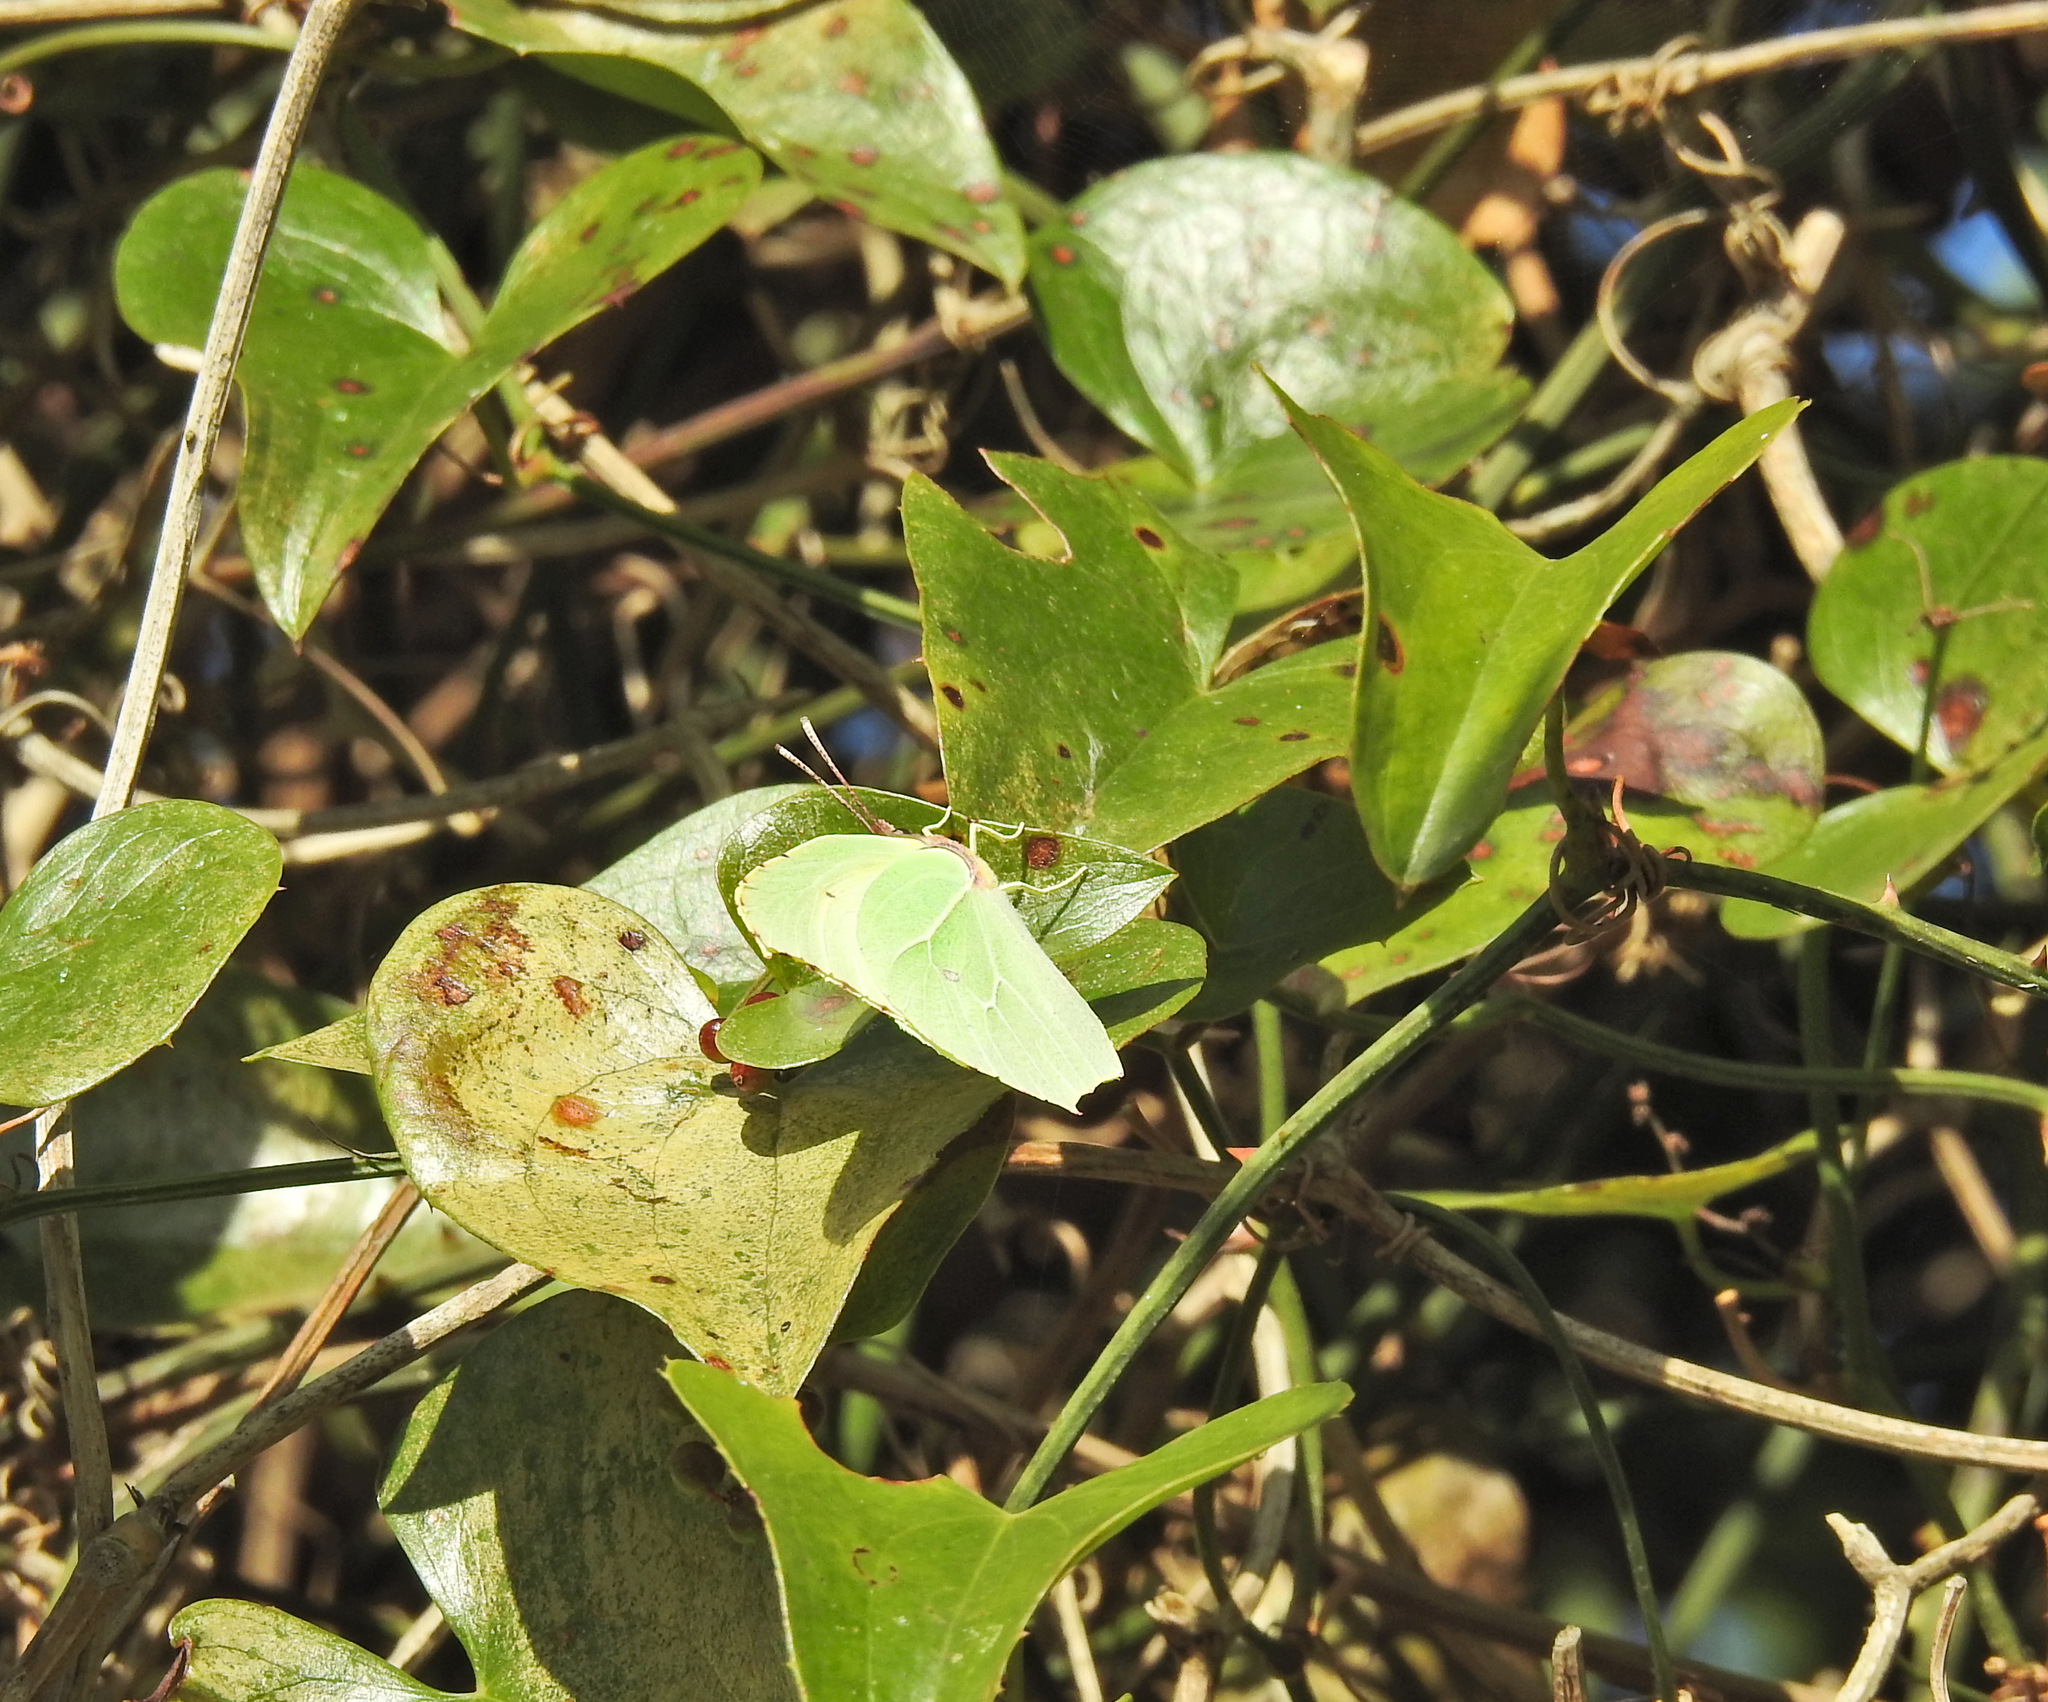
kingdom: Animalia
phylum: Arthropoda
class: Insecta
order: Lepidoptera
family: Pieridae
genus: Gonepteryx
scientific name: Gonepteryx rhamni
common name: Brimstone
